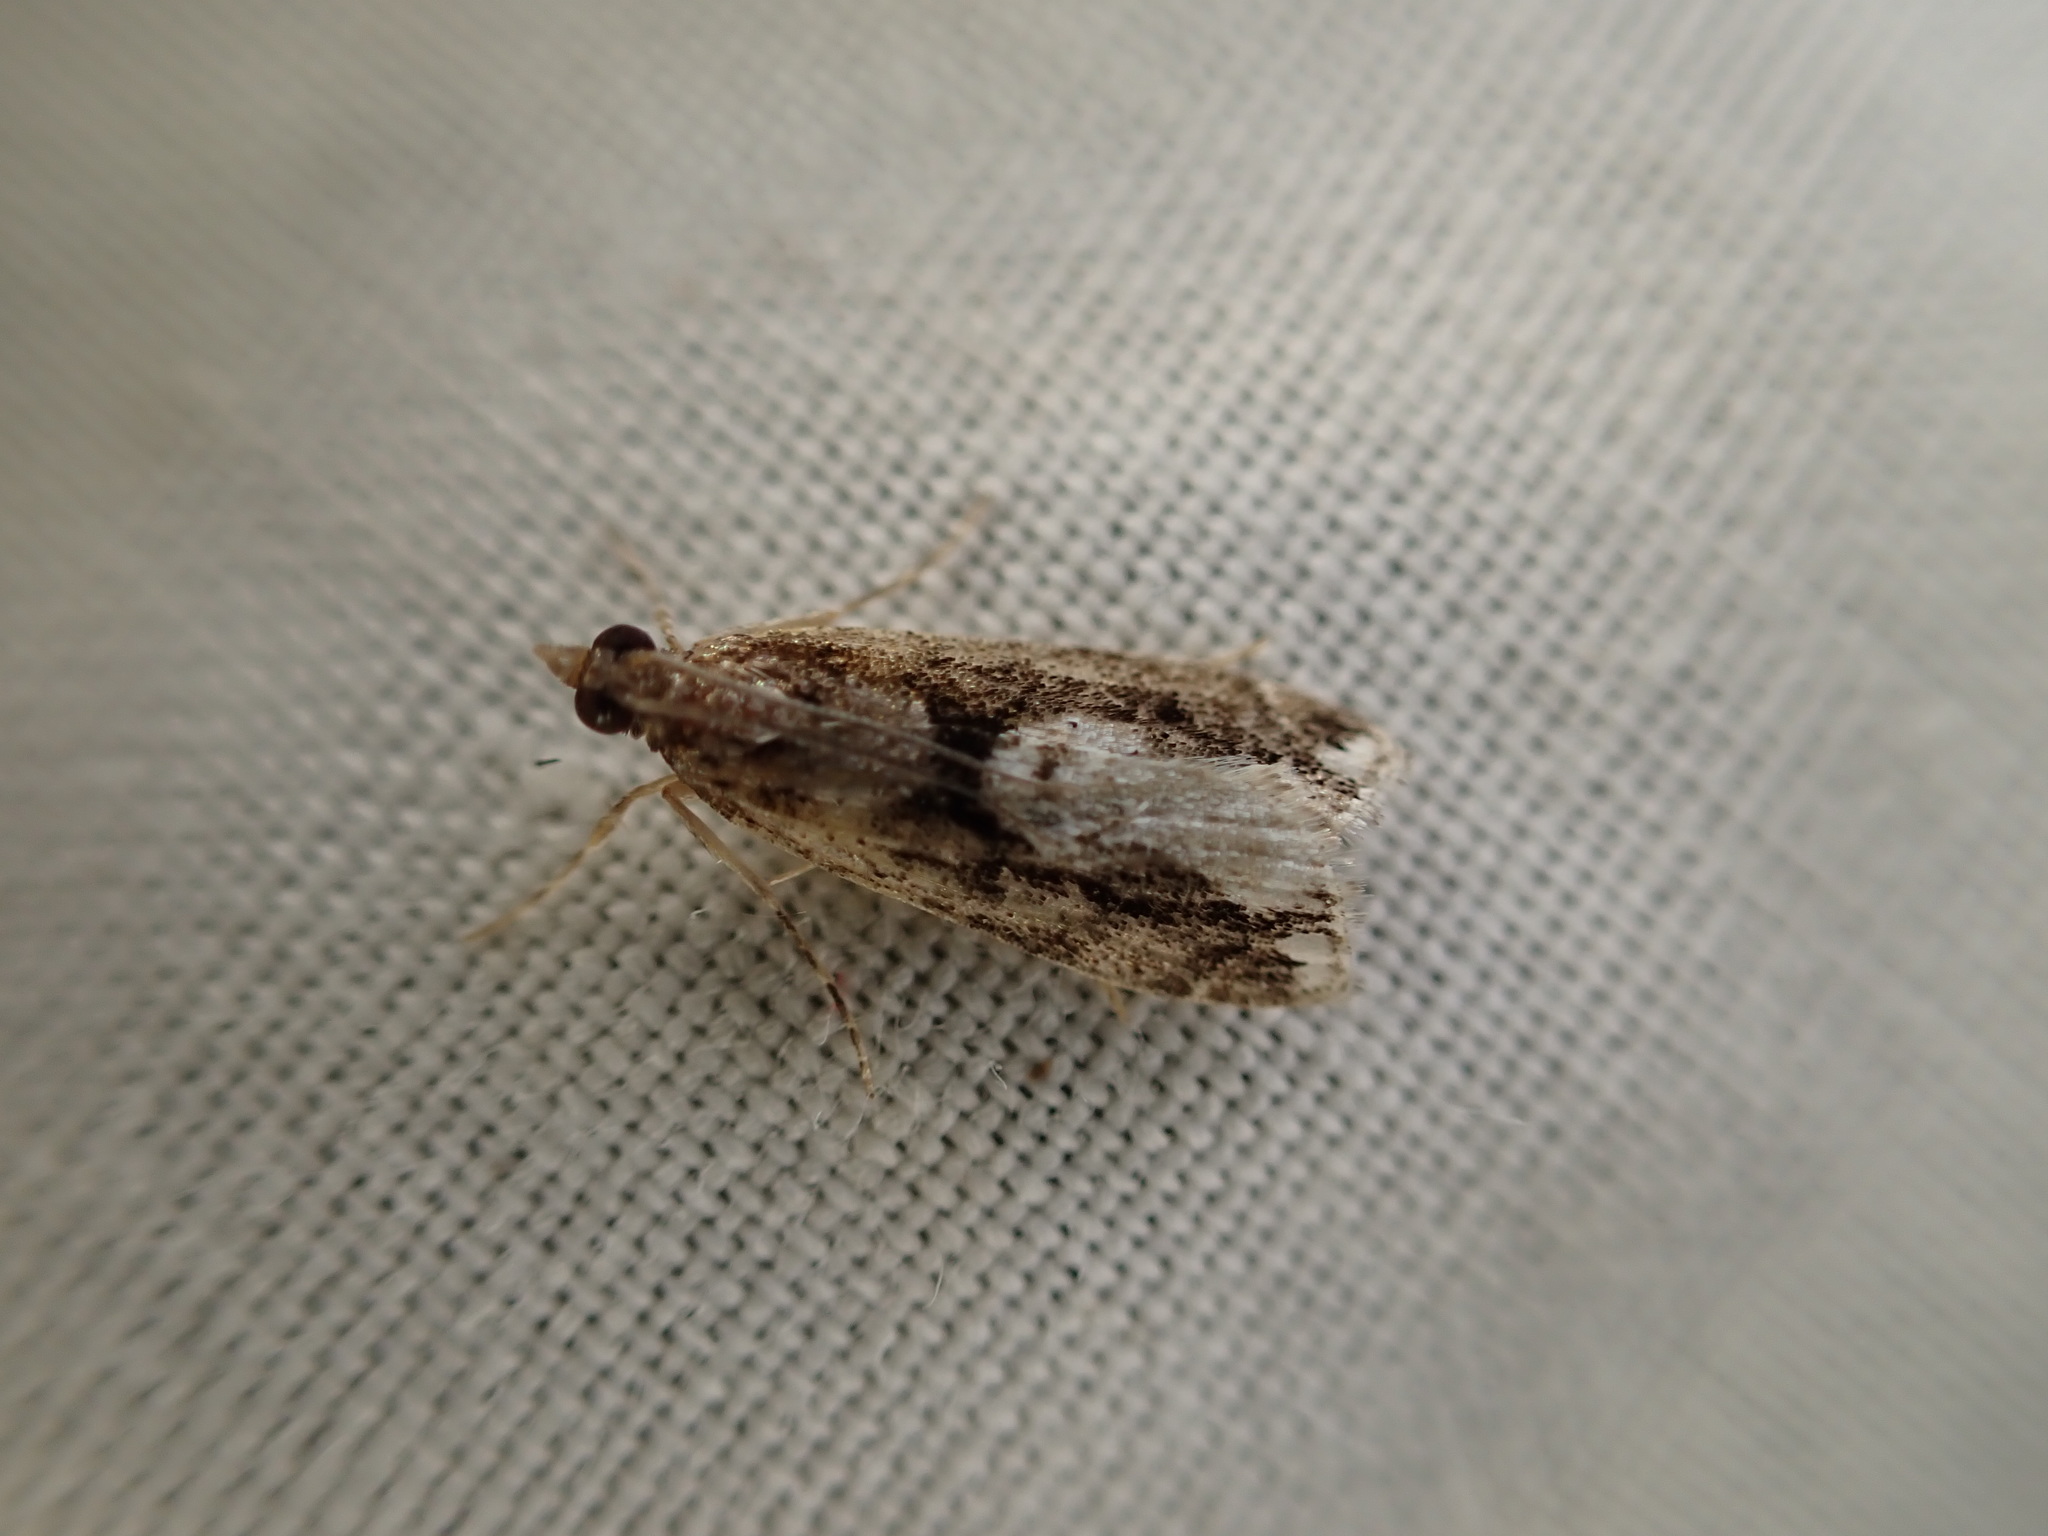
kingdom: Animalia
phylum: Arthropoda
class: Insecta
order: Lepidoptera
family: Crambidae
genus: Eudonia
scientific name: Eudonia hemiplaca
